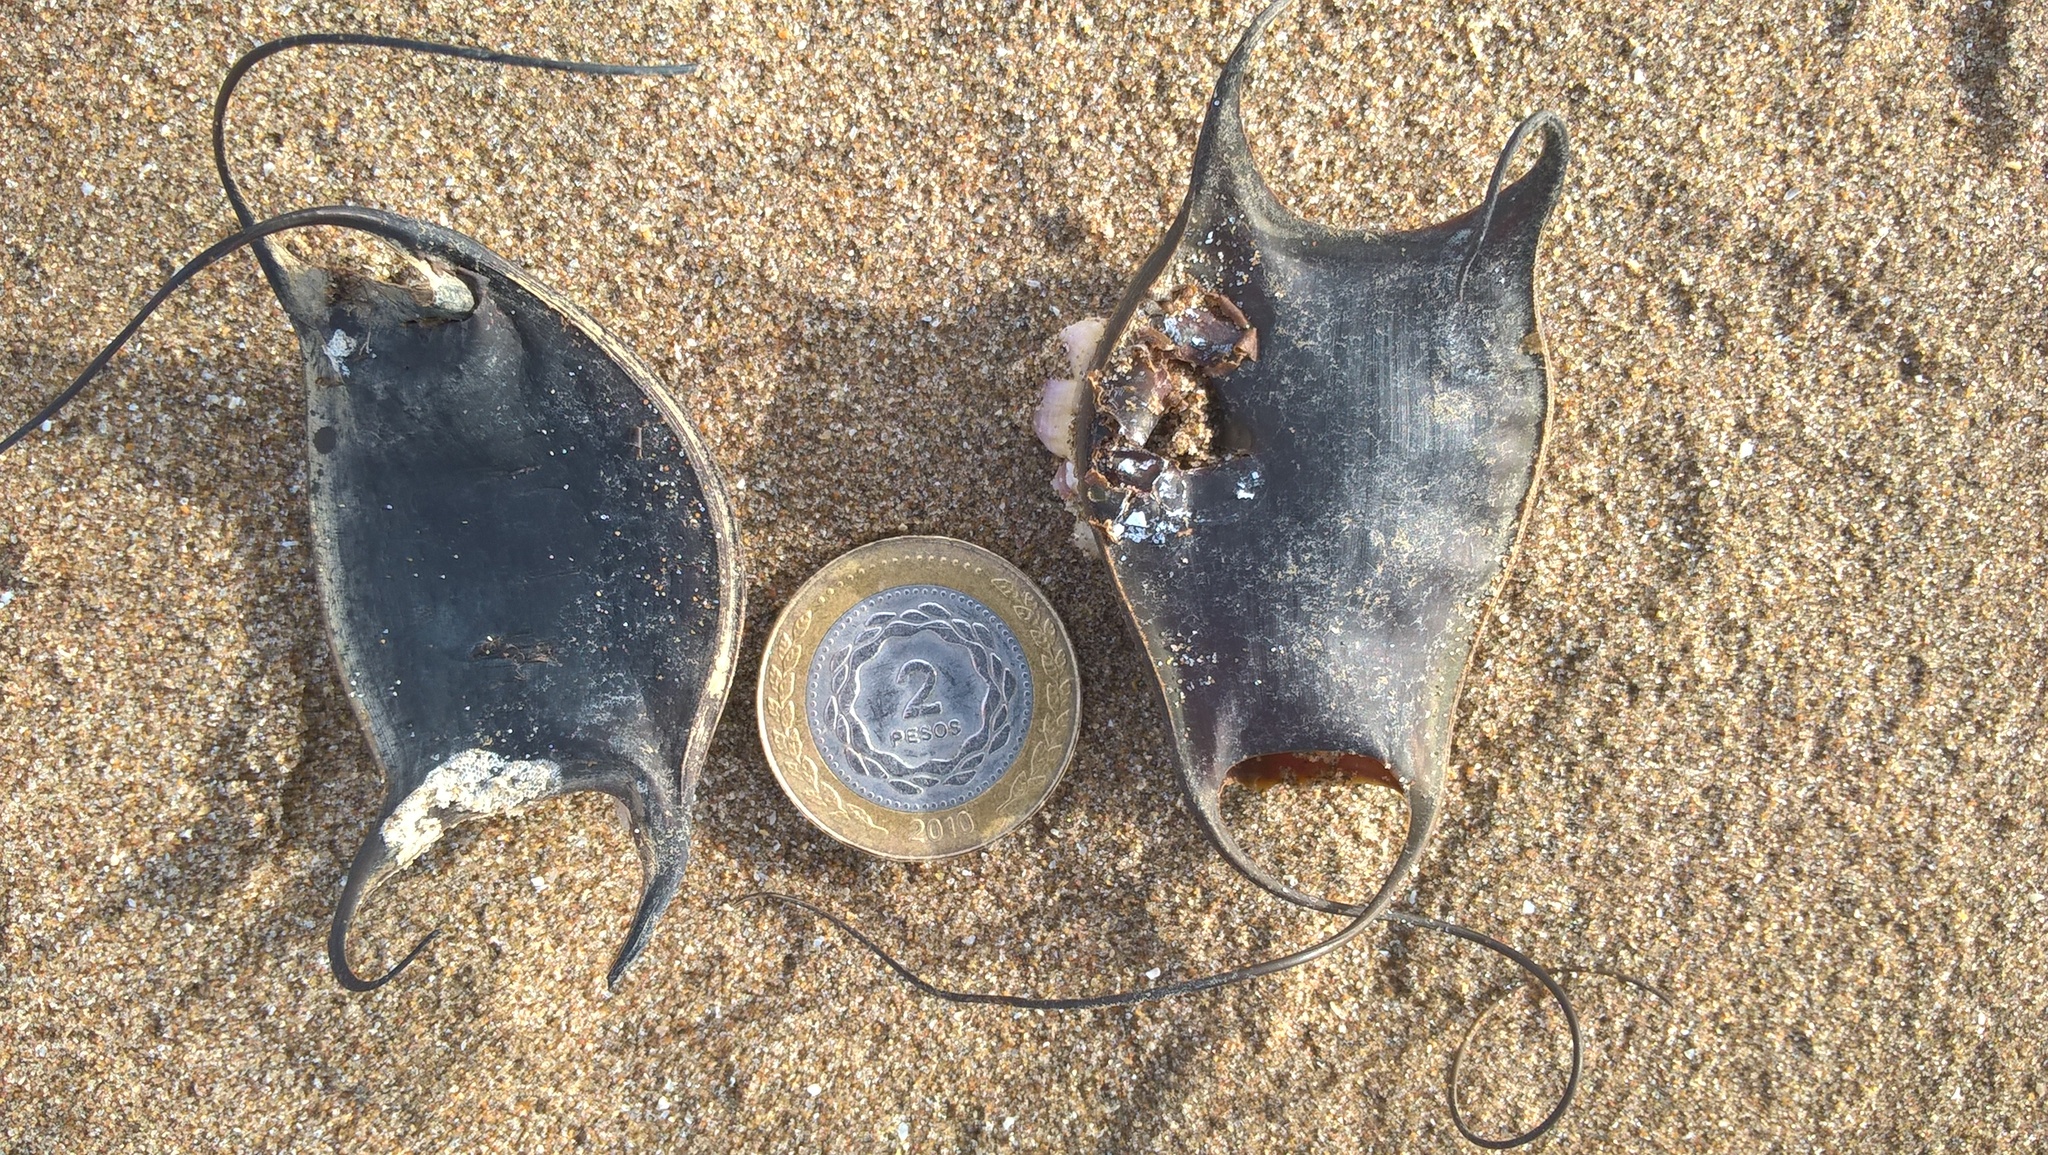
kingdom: Animalia
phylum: Chordata
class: Elasmobranchii
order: Rajiformes
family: Arhynchobatidae
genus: Sympterygia
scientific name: Sympterygia acuta
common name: Bignose fanskate
